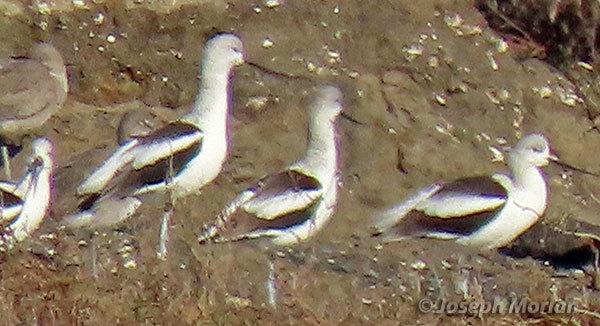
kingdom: Animalia
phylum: Chordata
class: Aves
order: Charadriiformes
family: Recurvirostridae
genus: Recurvirostra
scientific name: Recurvirostra americana
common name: American avocet
